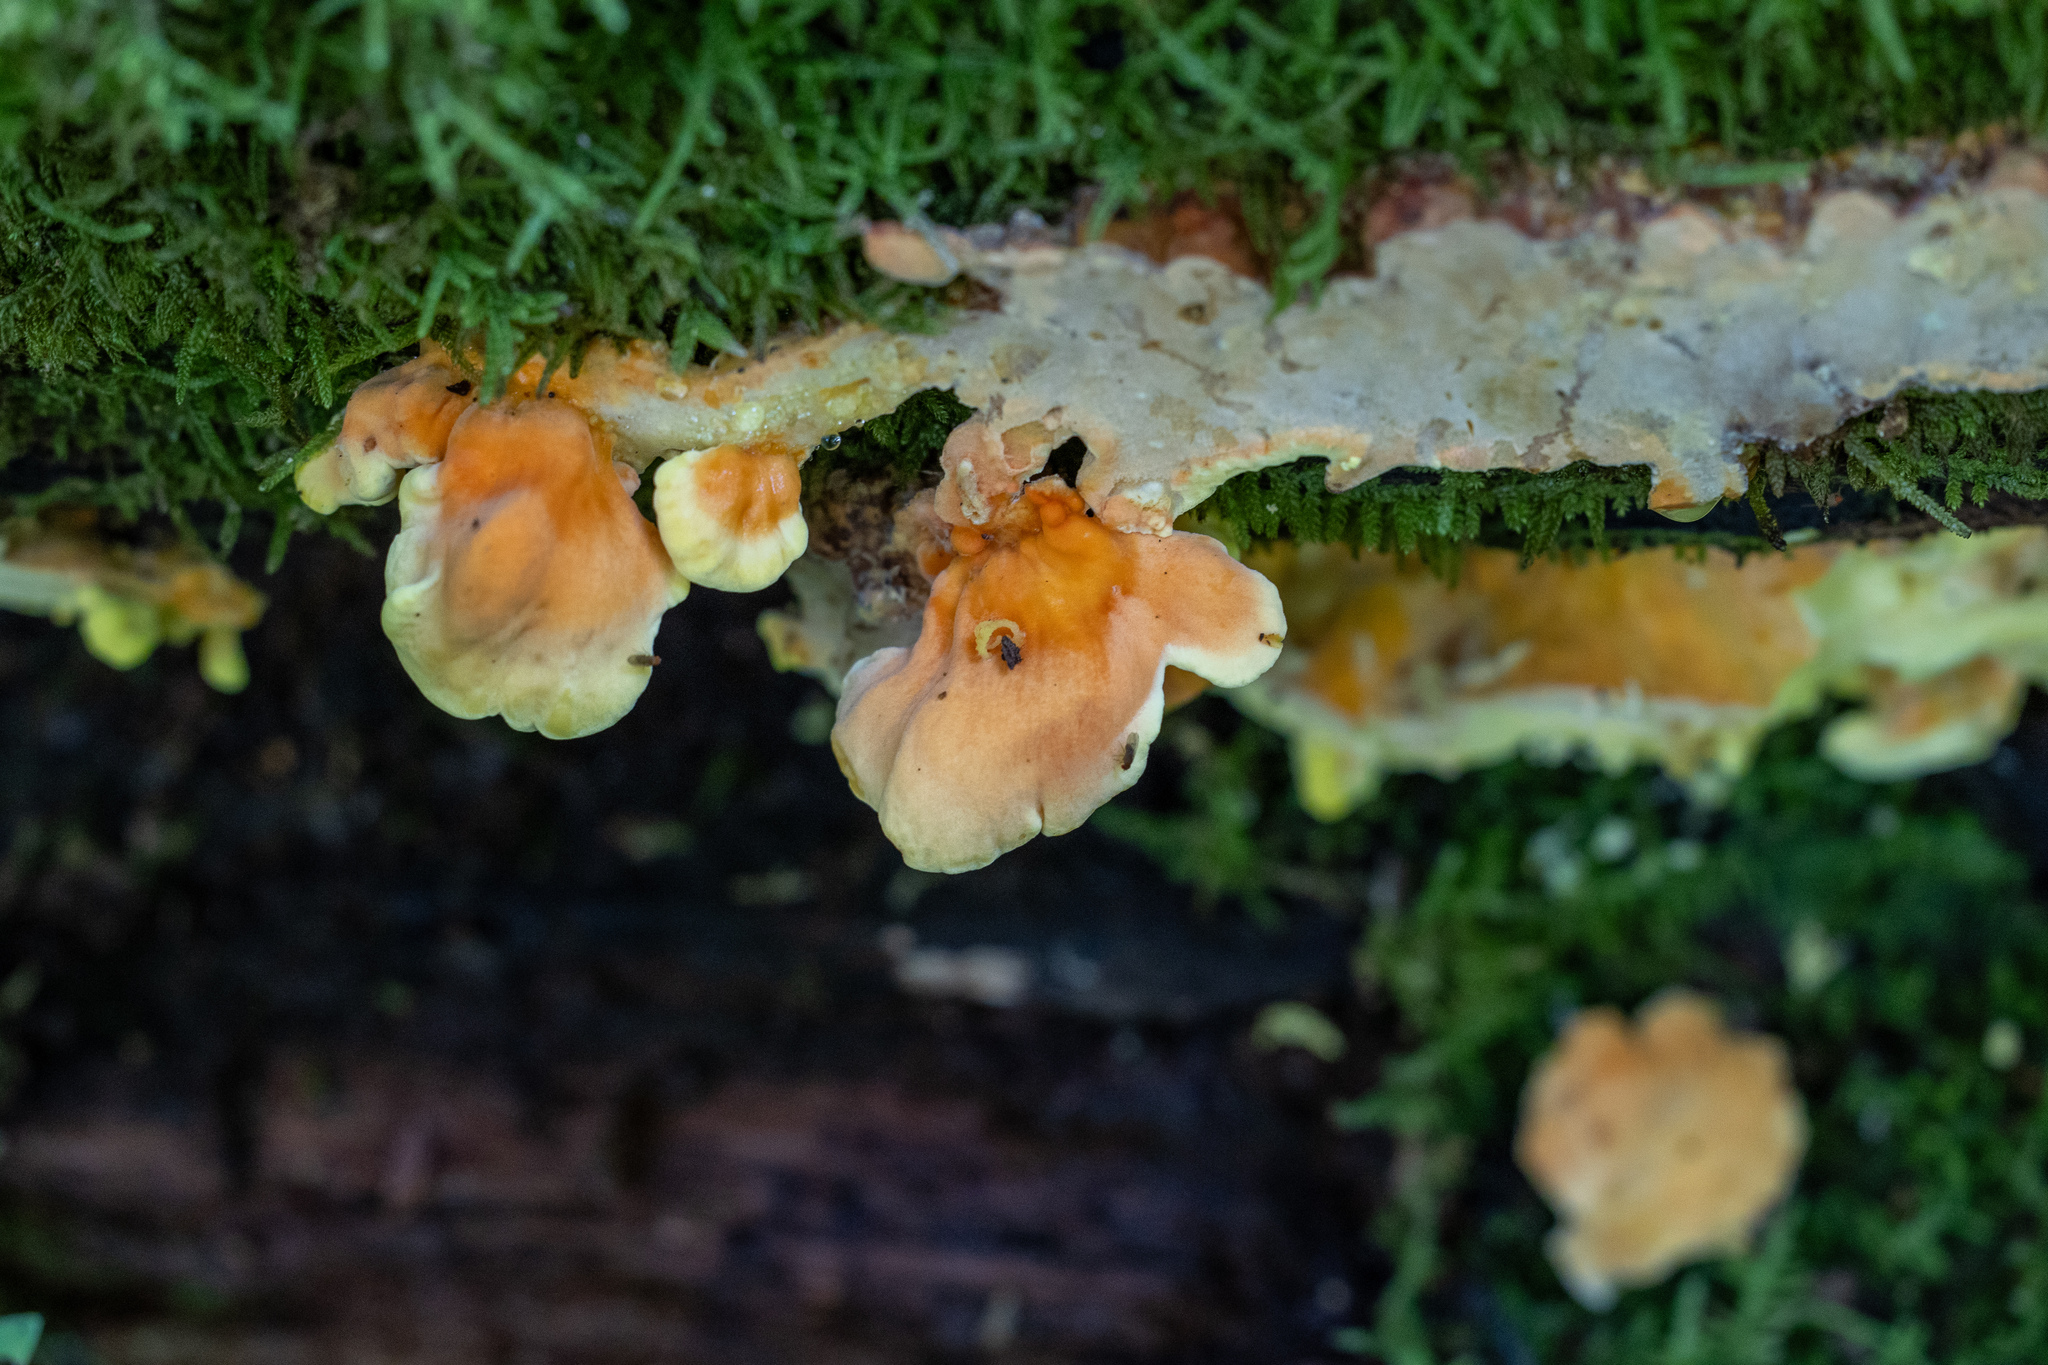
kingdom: Fungi
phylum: Basidiomycota
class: Agaricomycetes
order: Polyporales
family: Laetiporaceae
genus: Laetiporus
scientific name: Laetiporus sulphureus
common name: Chicken of the woods
